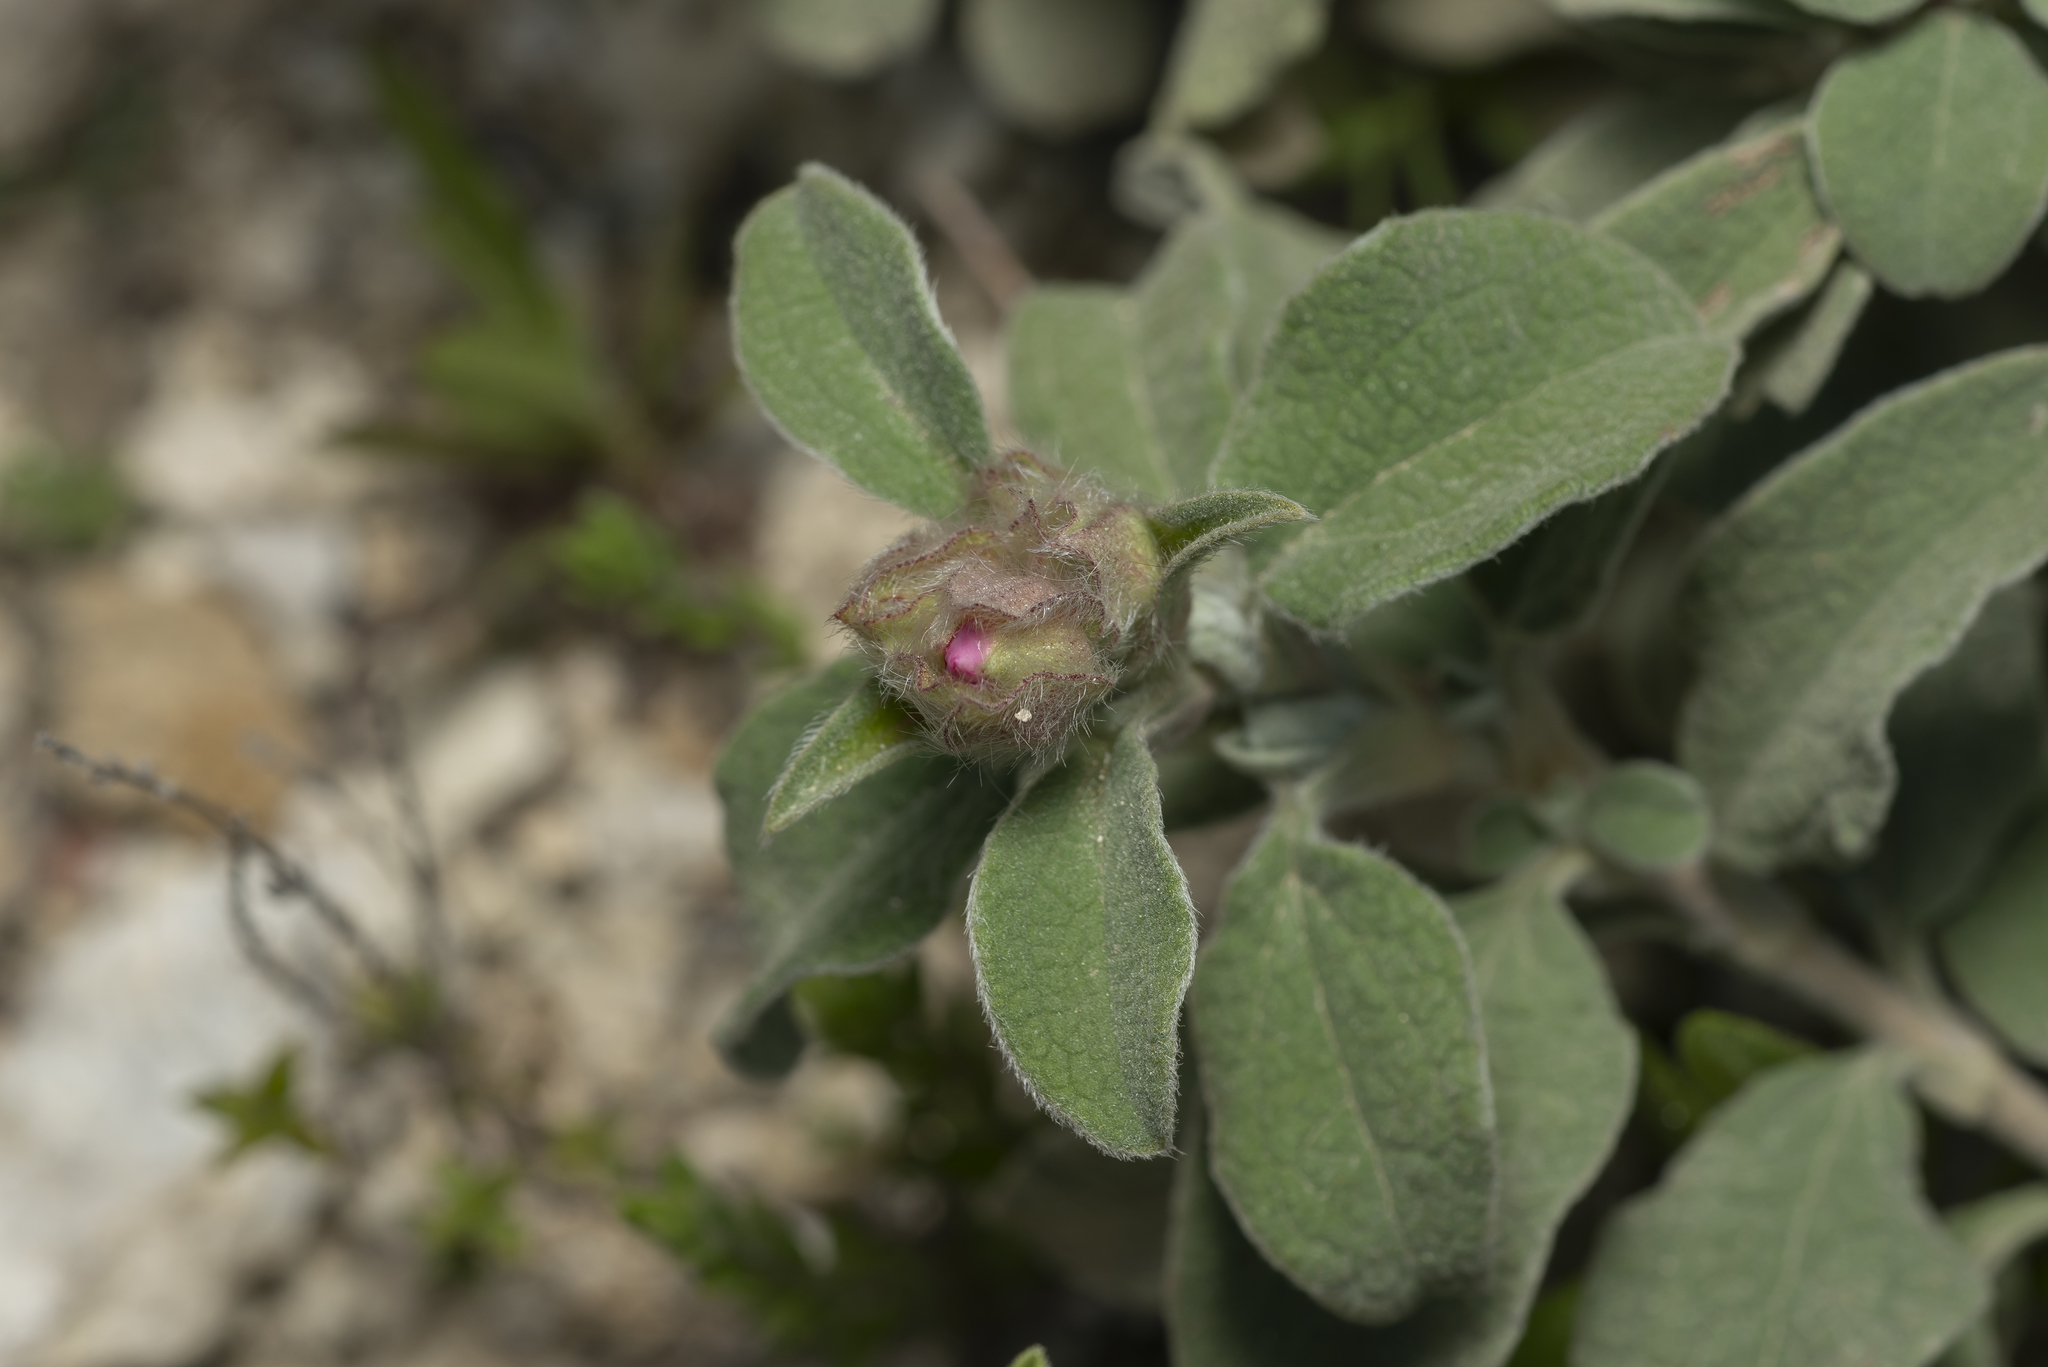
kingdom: Plantae
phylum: Tracheophyta
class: Magnoliopsida
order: Malvales
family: Cistaceae
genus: Cistus
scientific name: Cistus parviflorus
